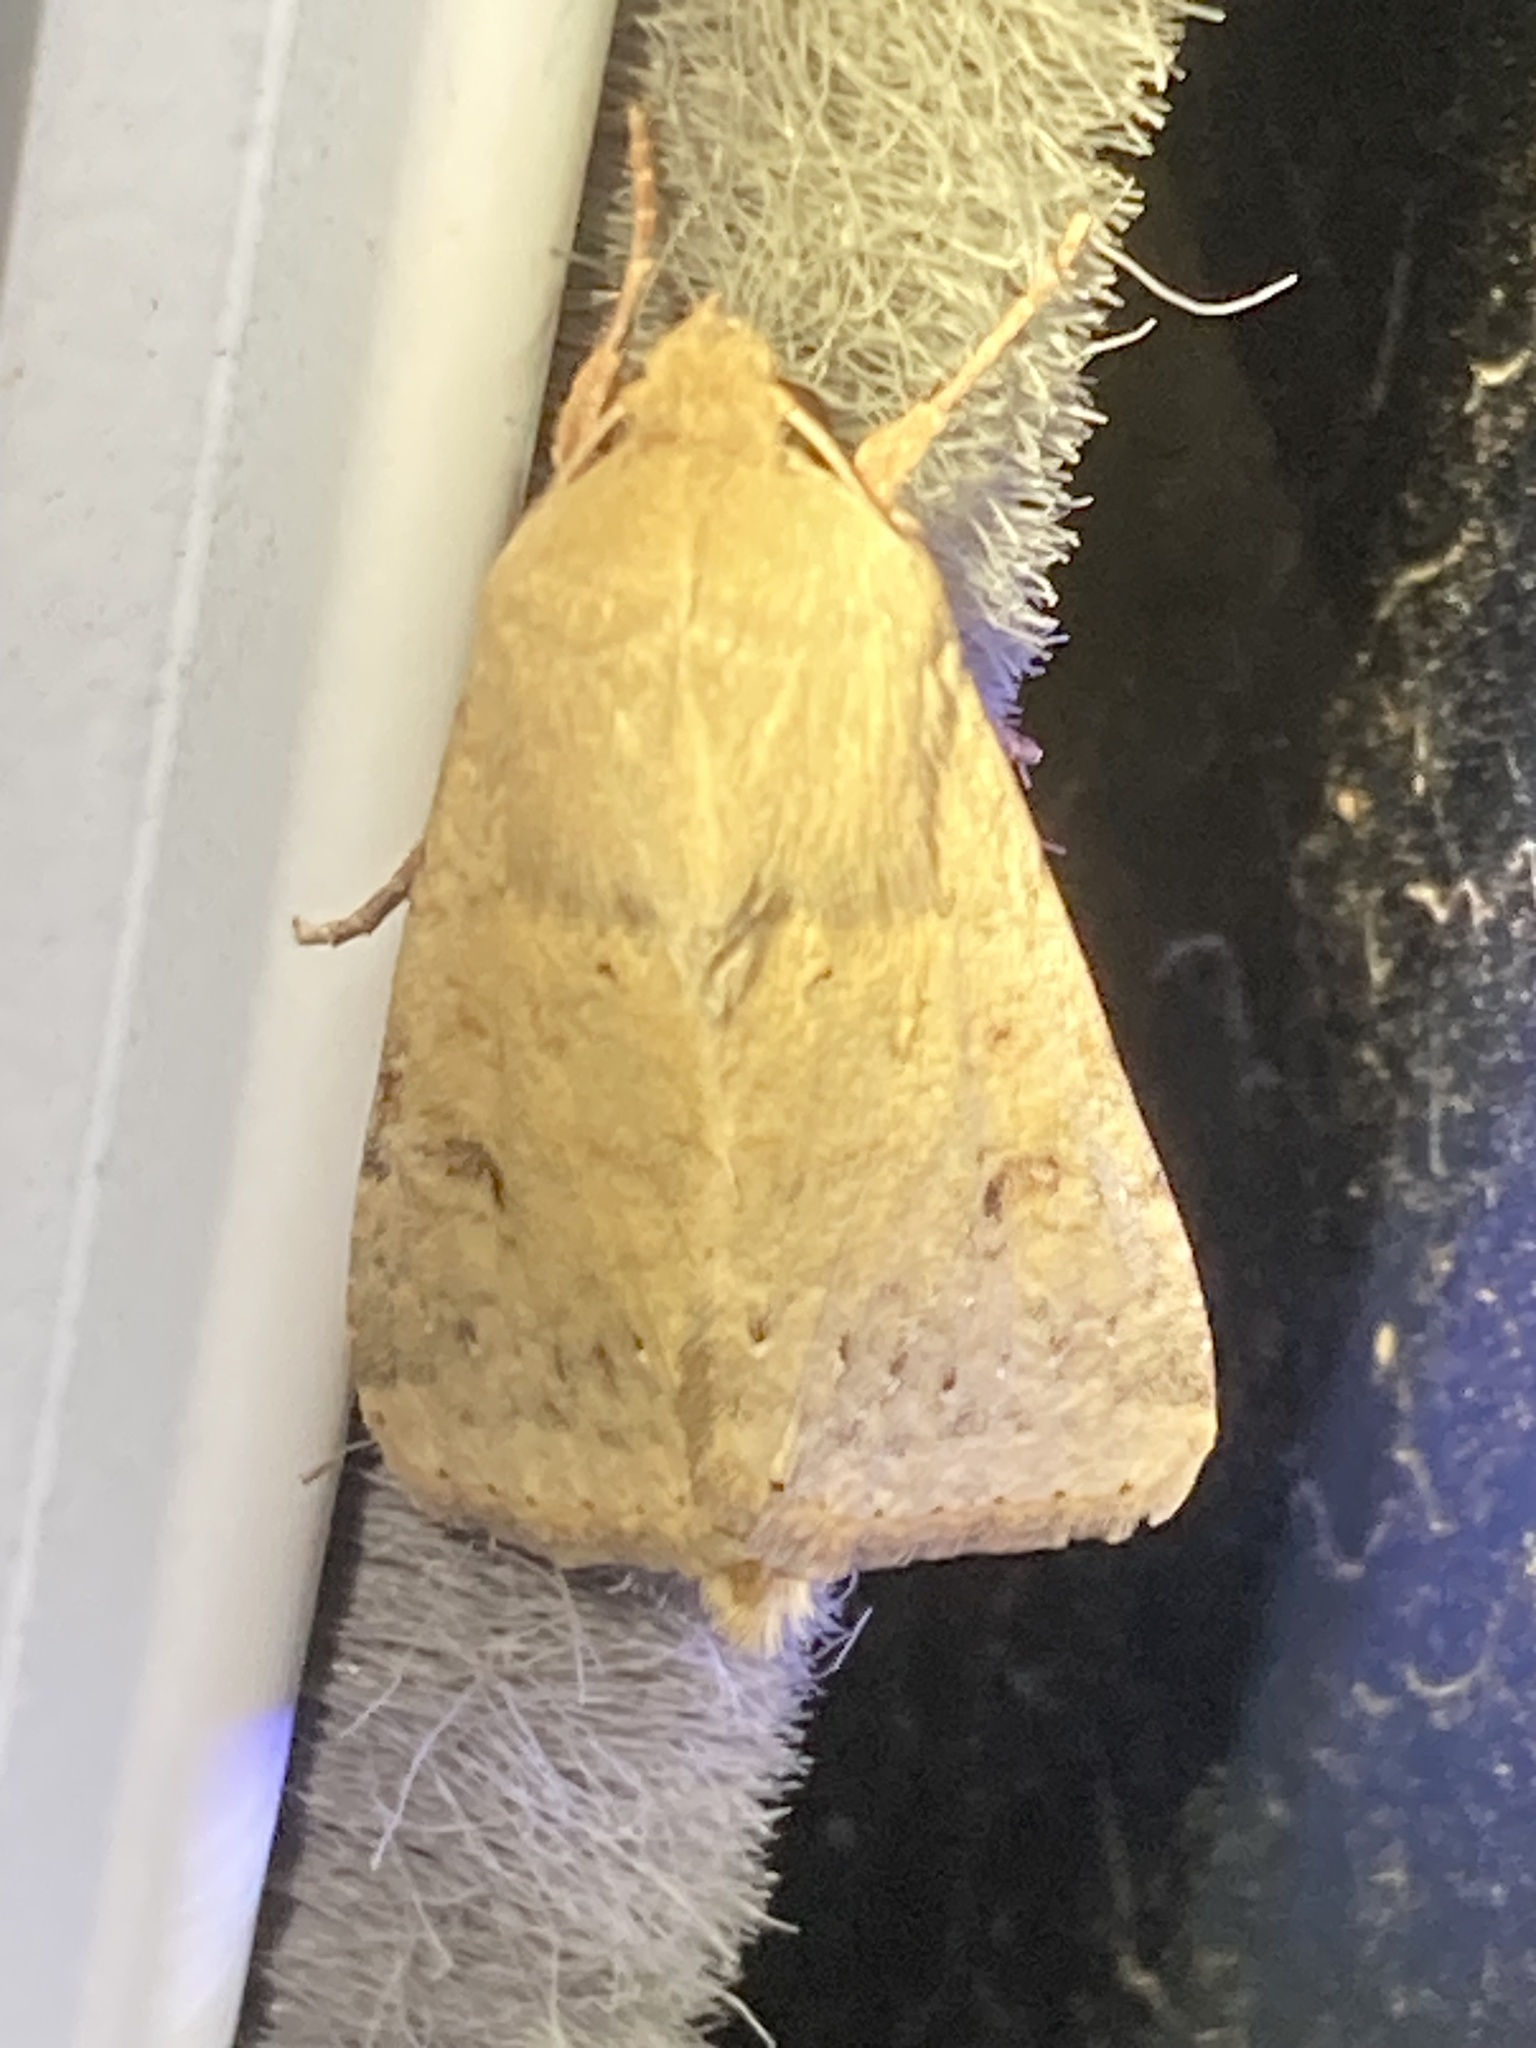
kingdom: Animalia
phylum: Arthropoda
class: Insecta
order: Lepidoptera
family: Noctuidae
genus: Helicoverpa
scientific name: Helicoverpa zea
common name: Bollworm
